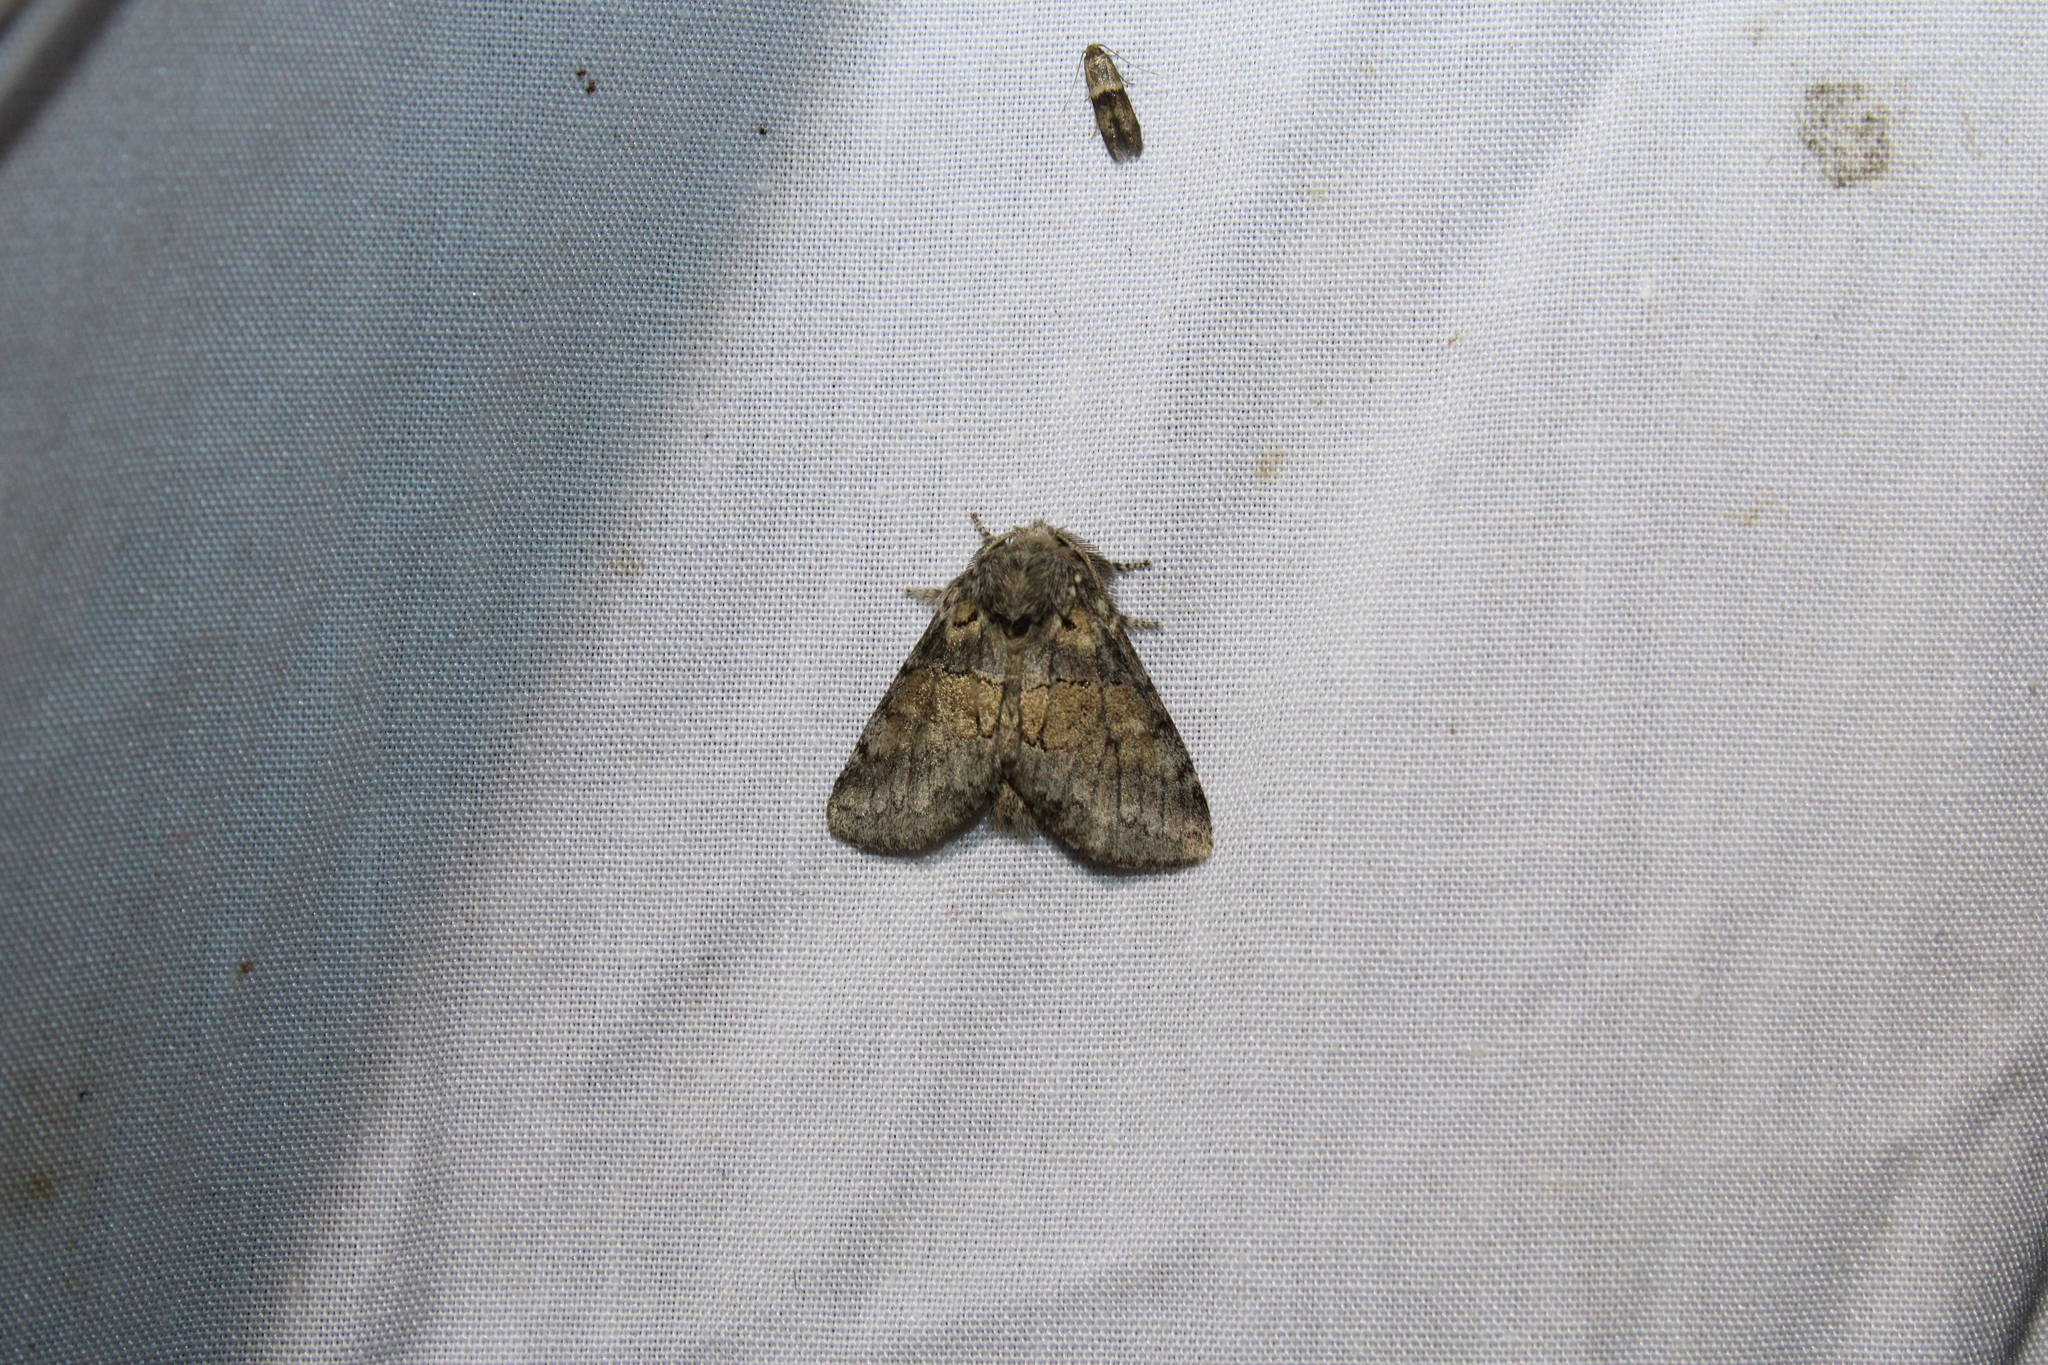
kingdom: Animalia
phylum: Arthropoda
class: Insecta
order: Lepidoptera
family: Notodontidae
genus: Gluphisia
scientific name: Gluphisia septentrionis
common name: Common gluphisia
